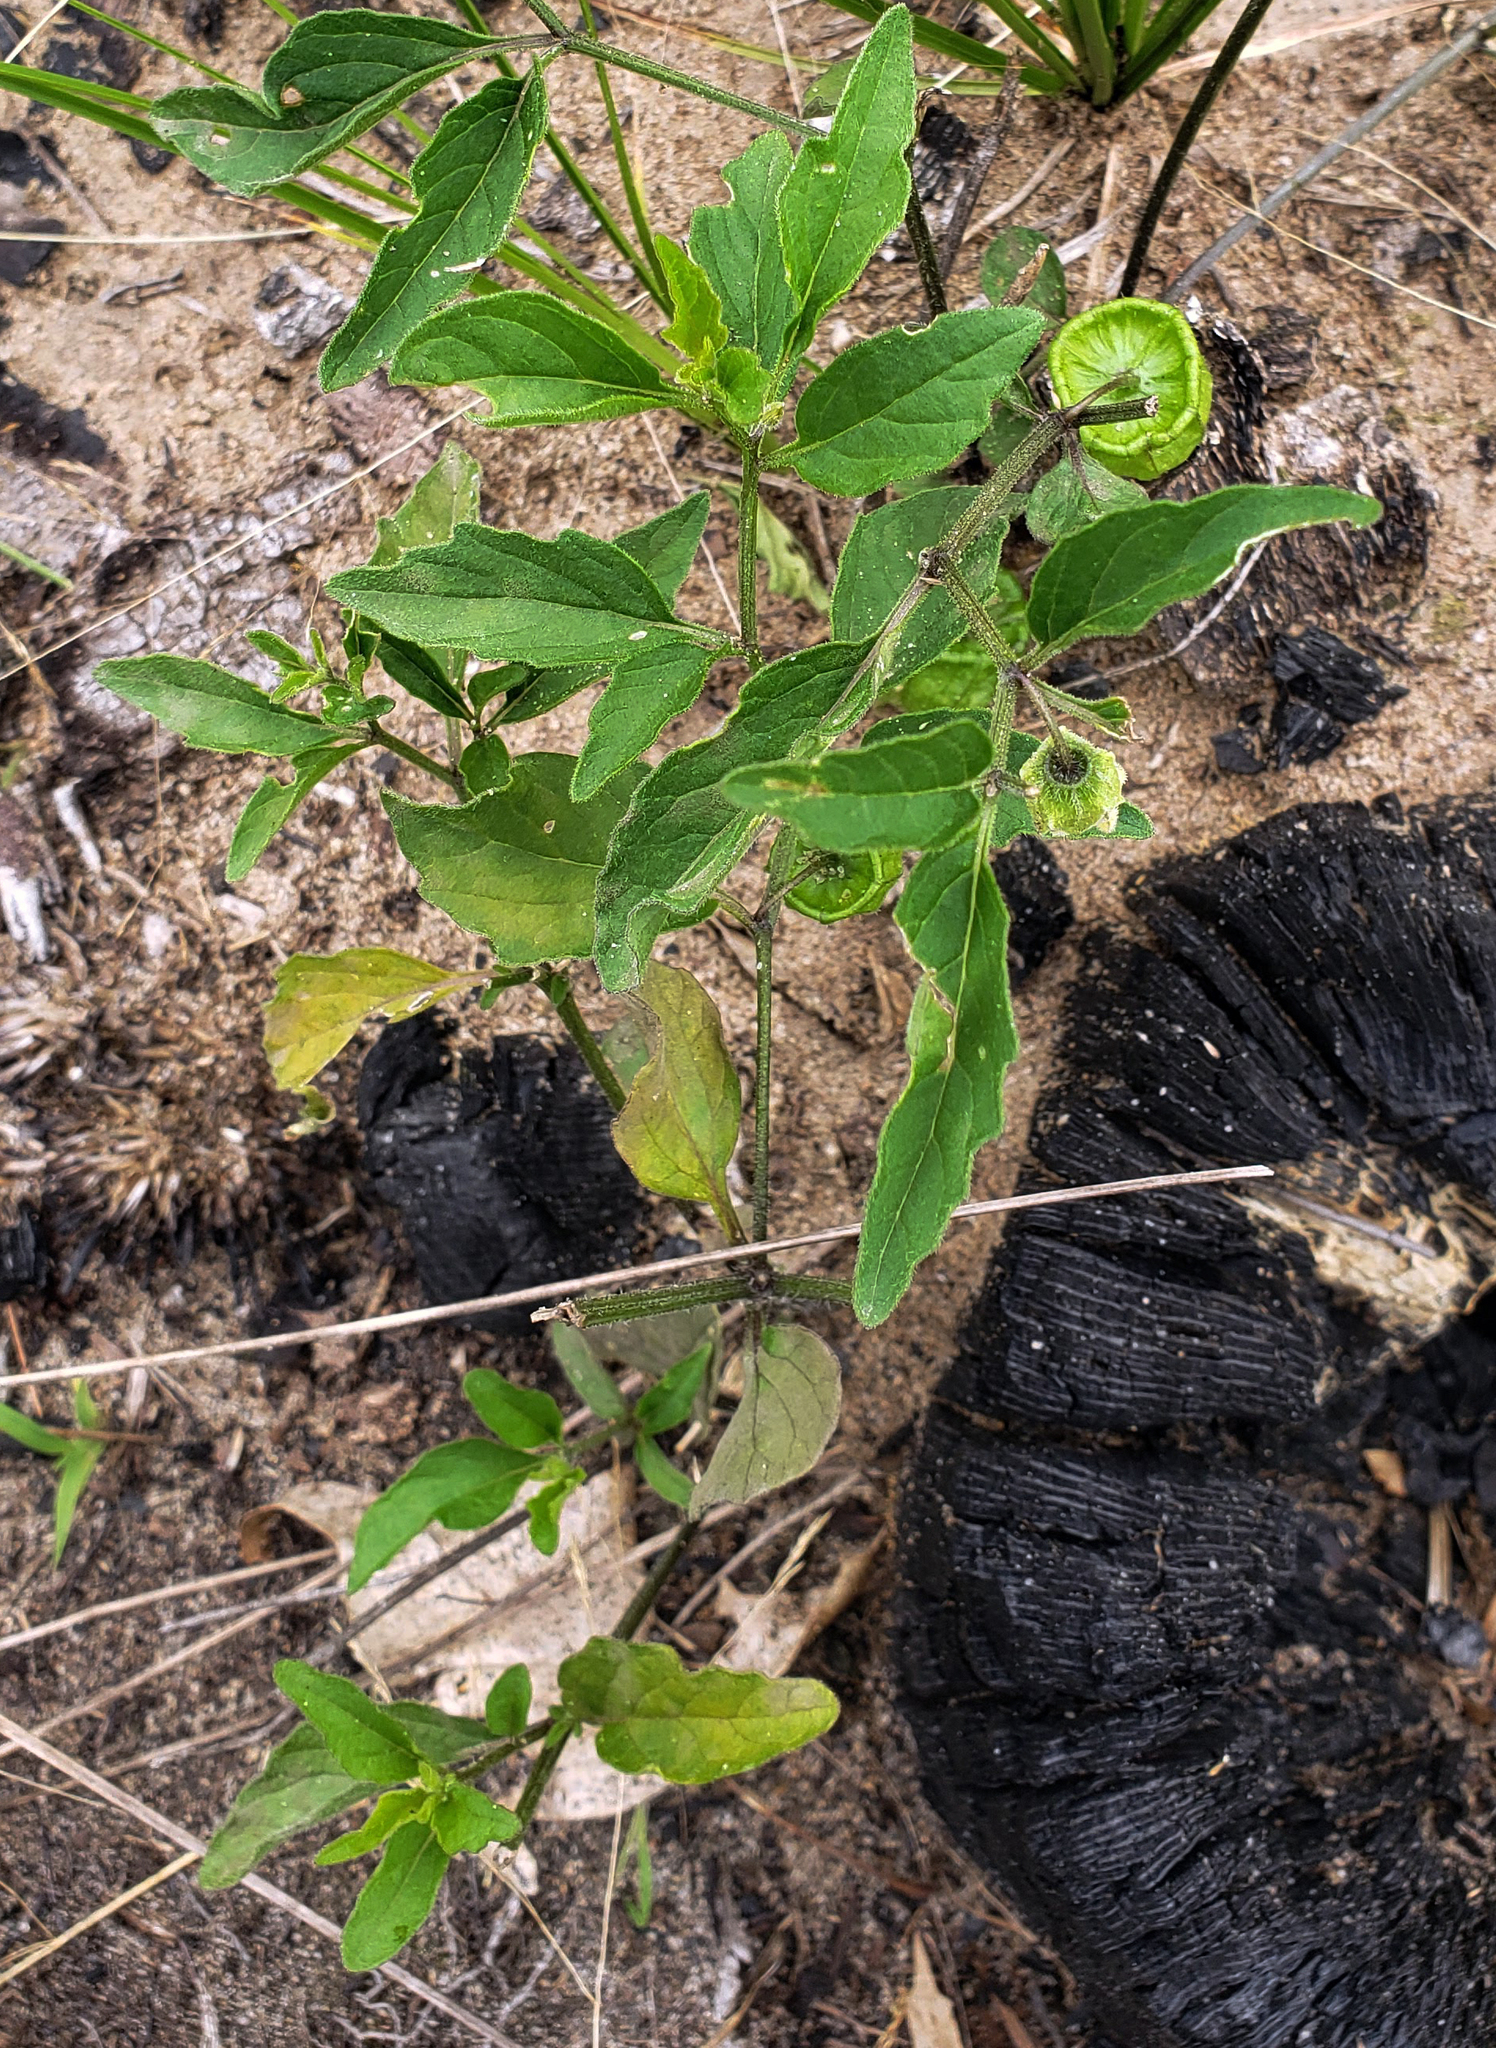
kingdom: Plantae
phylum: Tracheophyta
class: Magnoliopsida
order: Solanales
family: Solanaceae
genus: Physalis
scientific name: Physalis virginiana
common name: Virginia ground-cherry
